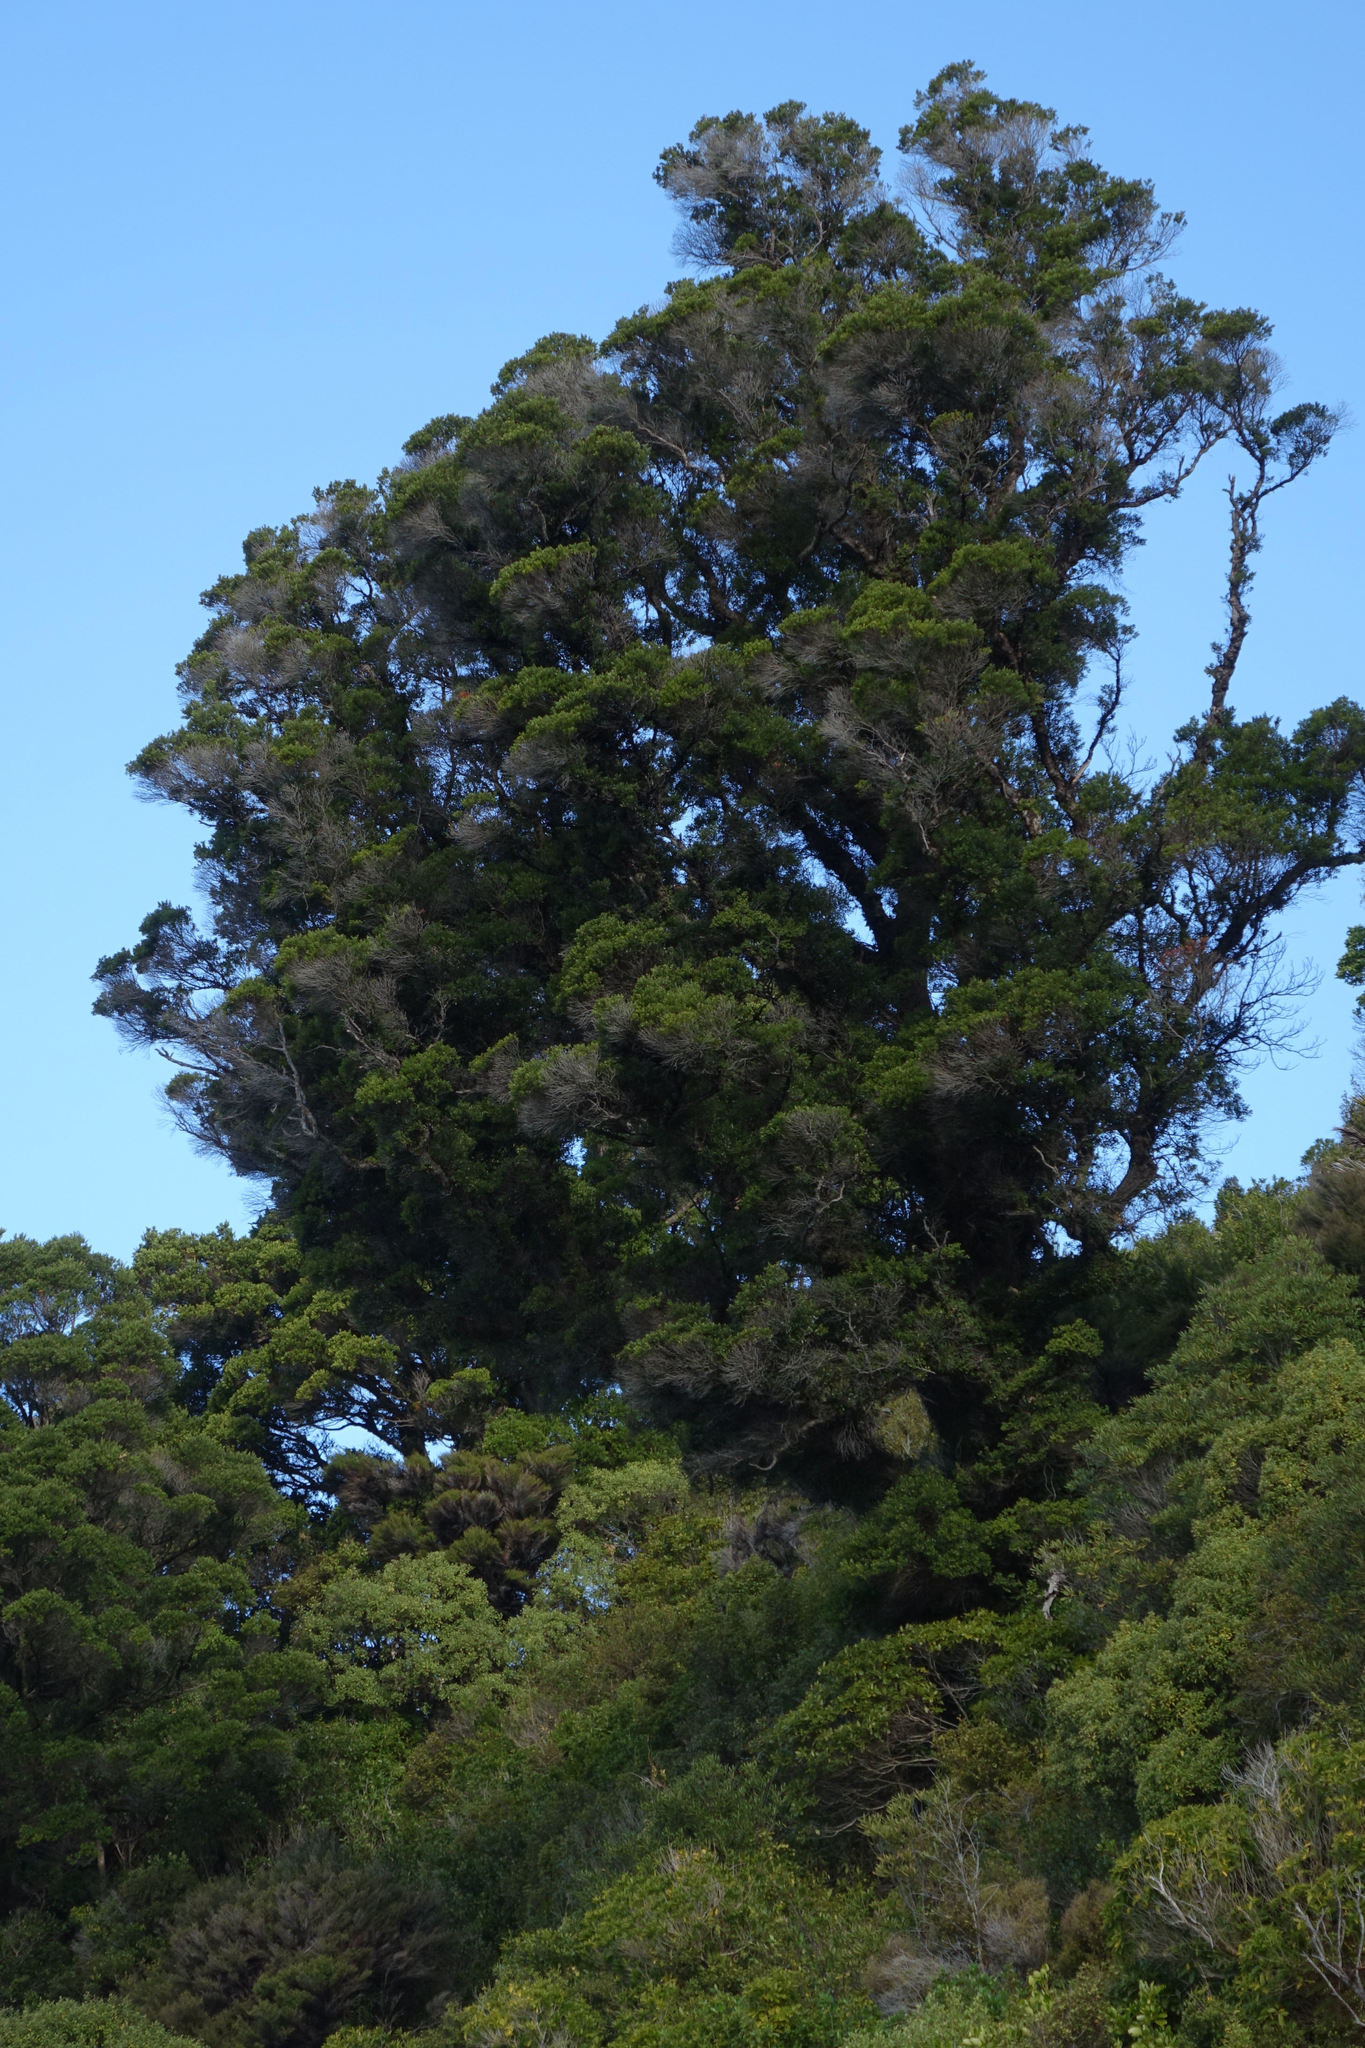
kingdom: Plantae
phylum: Tracheophyta
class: Magnoliopsida
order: Myrtales
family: Myrtaceae
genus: Metrosideros
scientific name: Metrosideros robusta
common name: Northern rata
